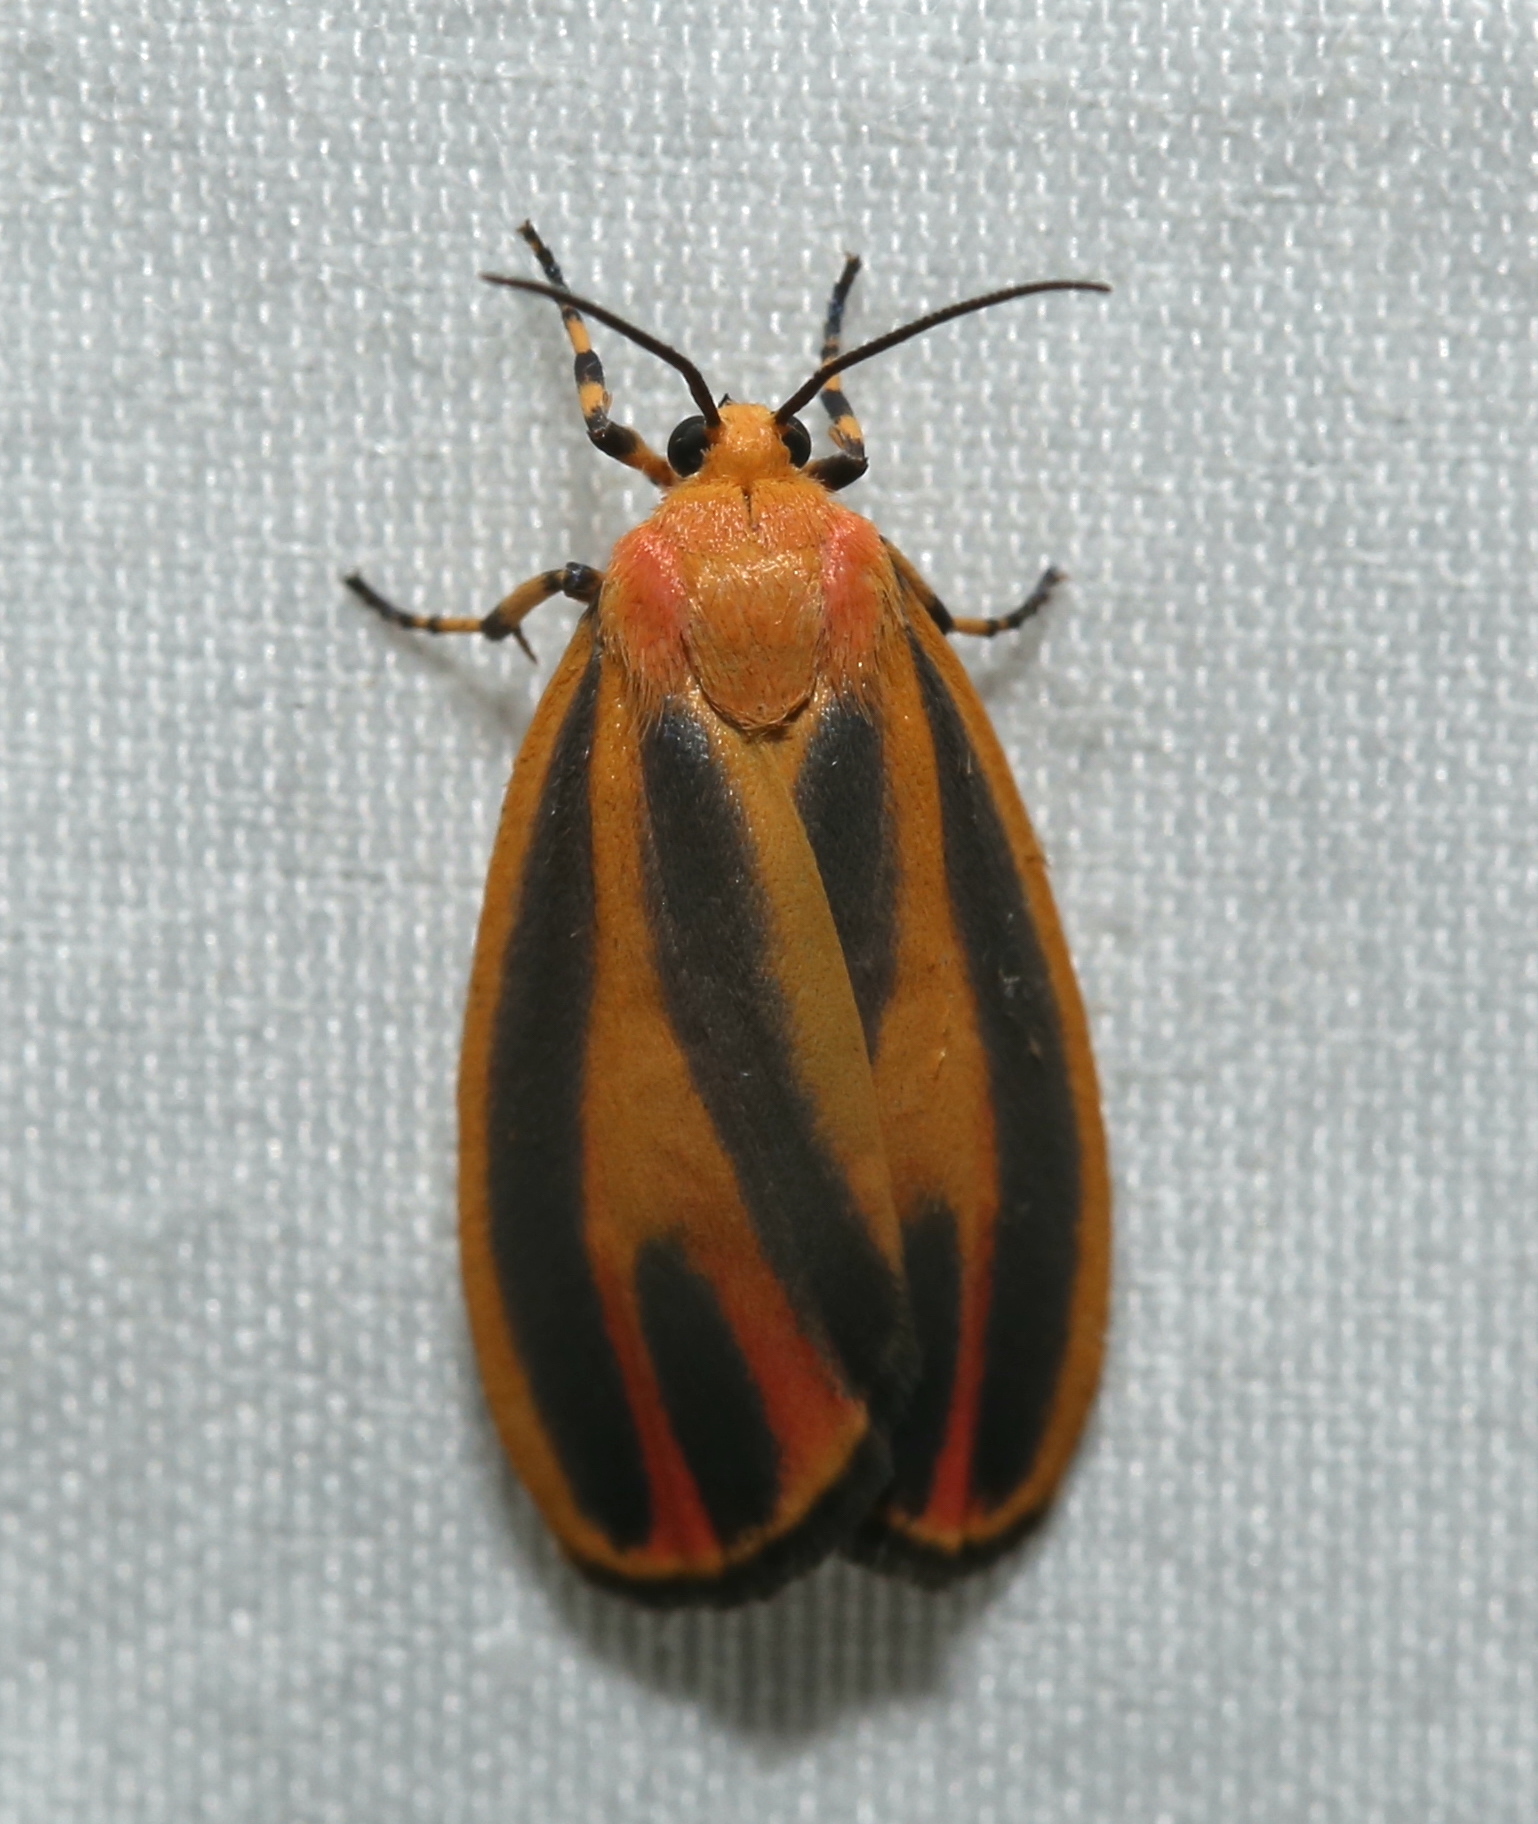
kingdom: Animalia
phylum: Arthropoda
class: Insecta
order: Lepidoptera
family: Erebidae
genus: Hypoprepia
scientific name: Hypoprepia fucosa
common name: Painted lichen moth
